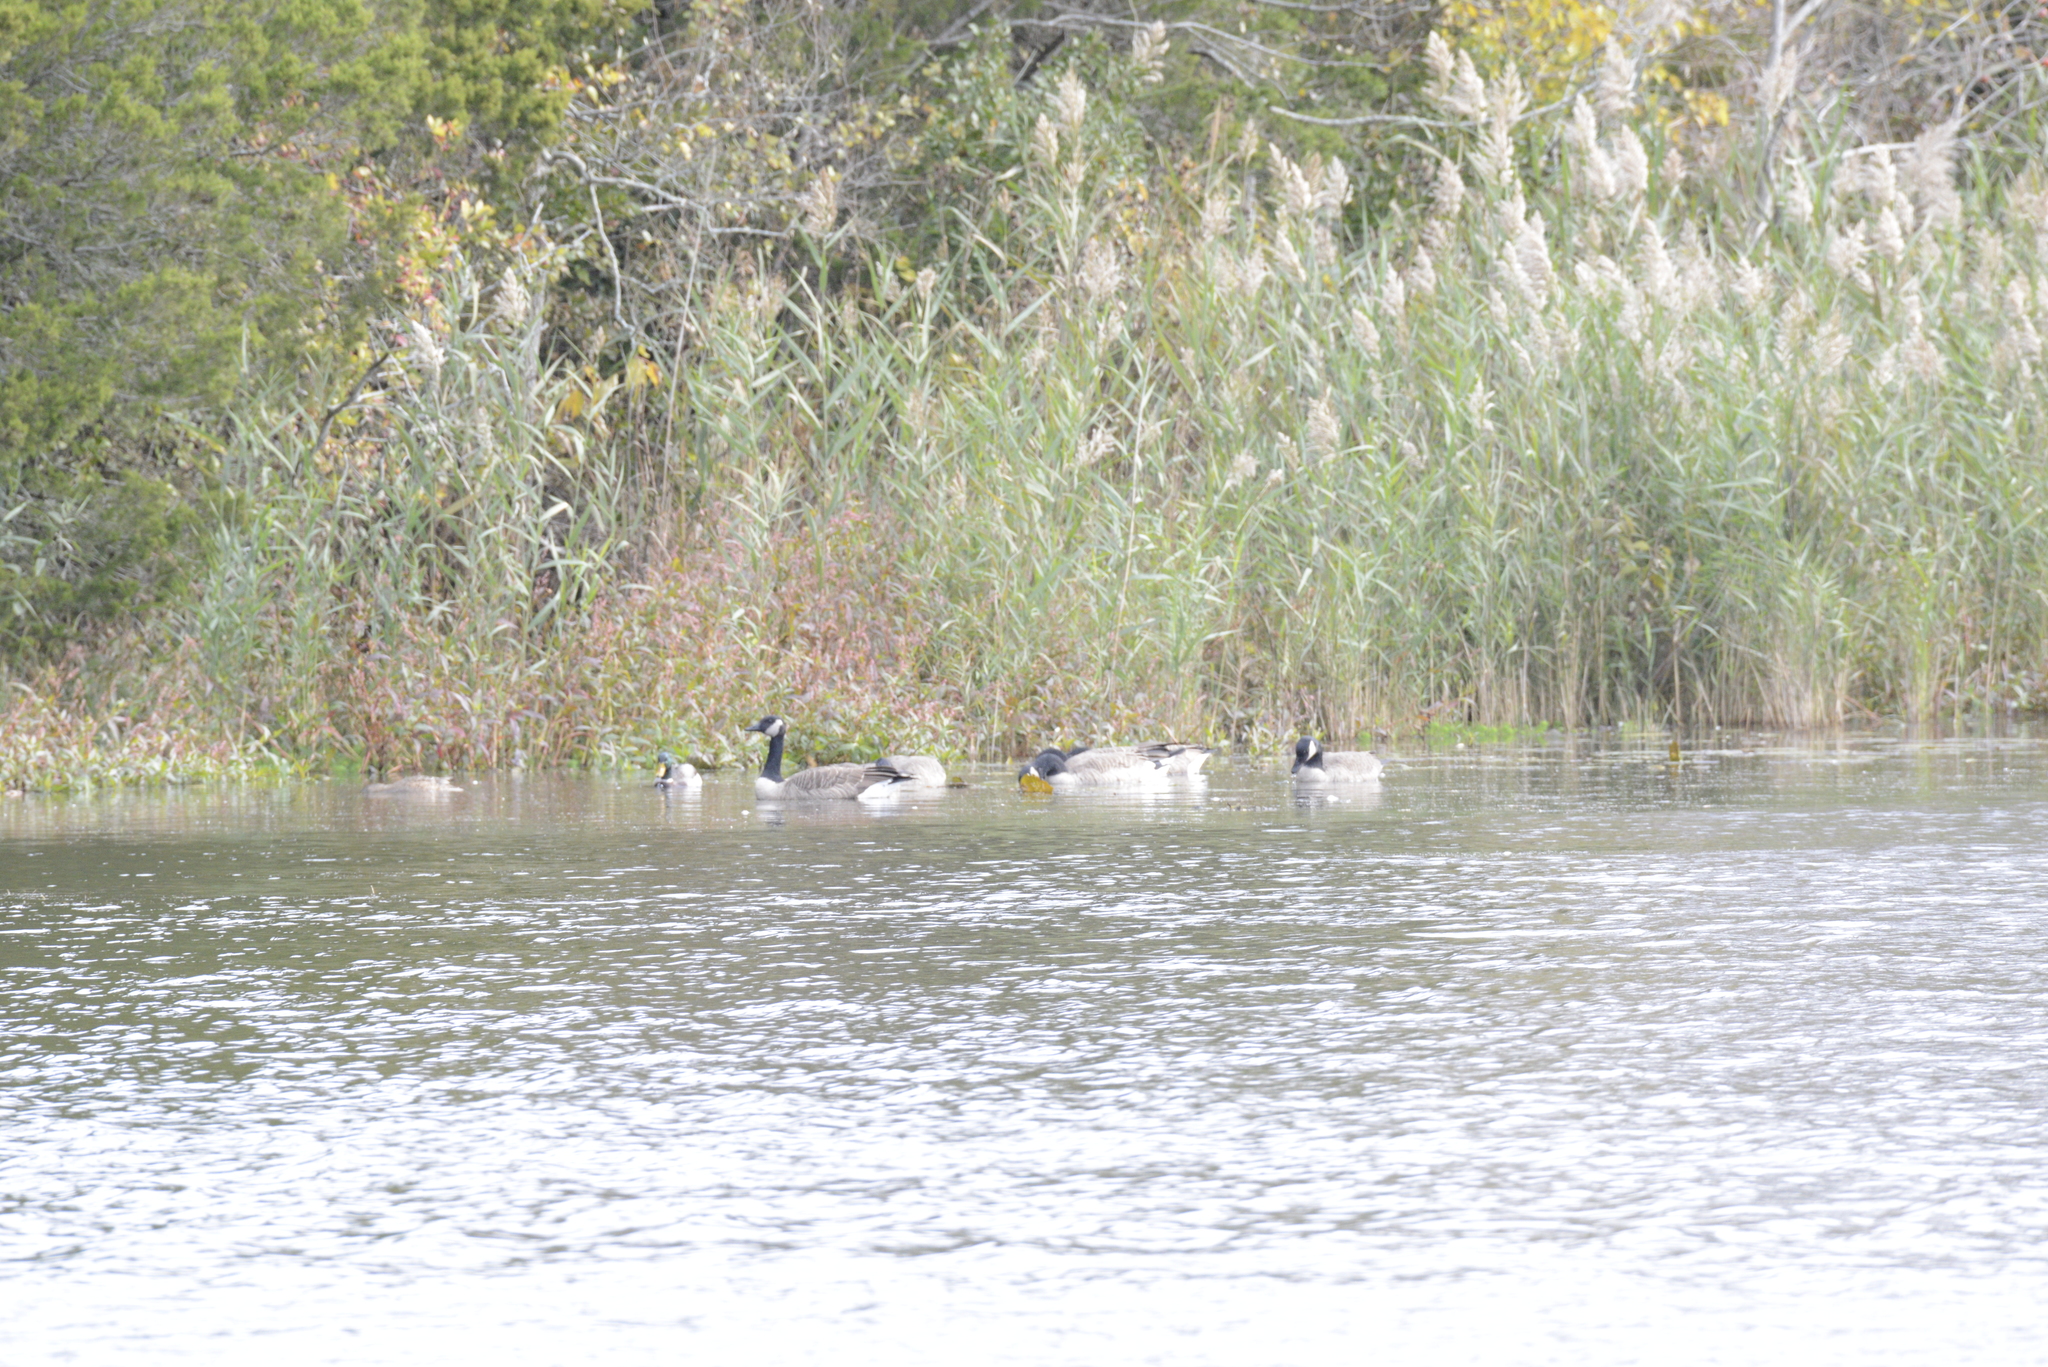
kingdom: Animalia
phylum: Chordata
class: Aves
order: Anseriformes
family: Anatidae
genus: Branta
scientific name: Branta canadensis
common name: Canada goose
